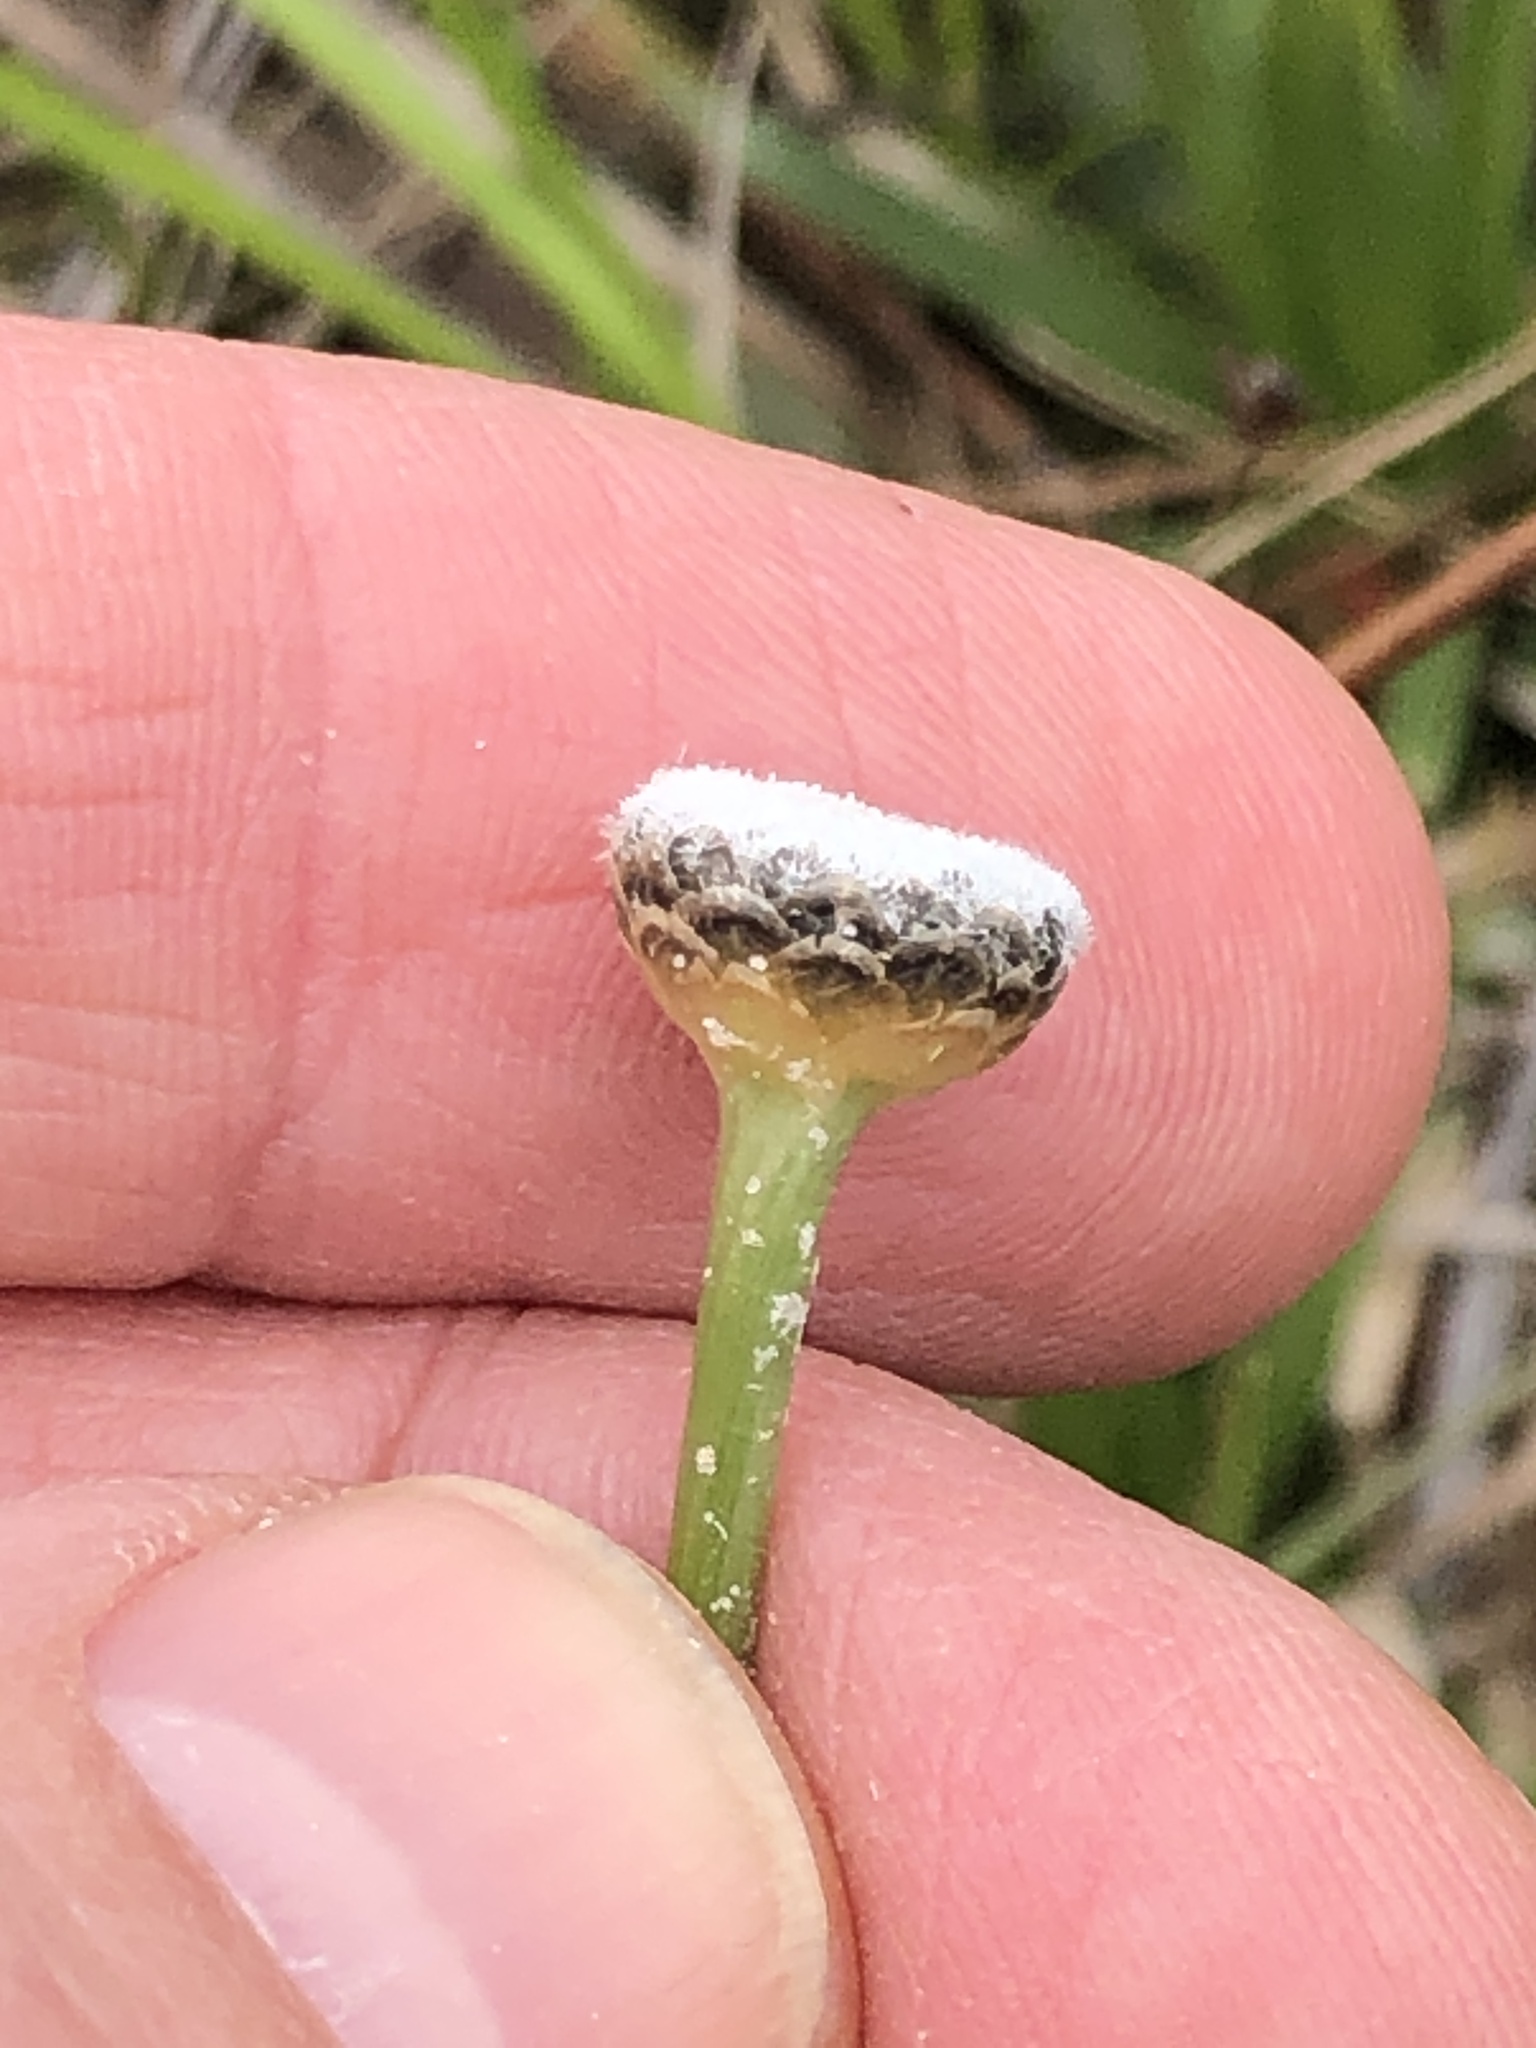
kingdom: Plantae
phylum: Tracheophyta
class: Liliopsida
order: Poales
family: Eriocaulaceae
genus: Eriocaulon
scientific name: Eriocaulon compressum
